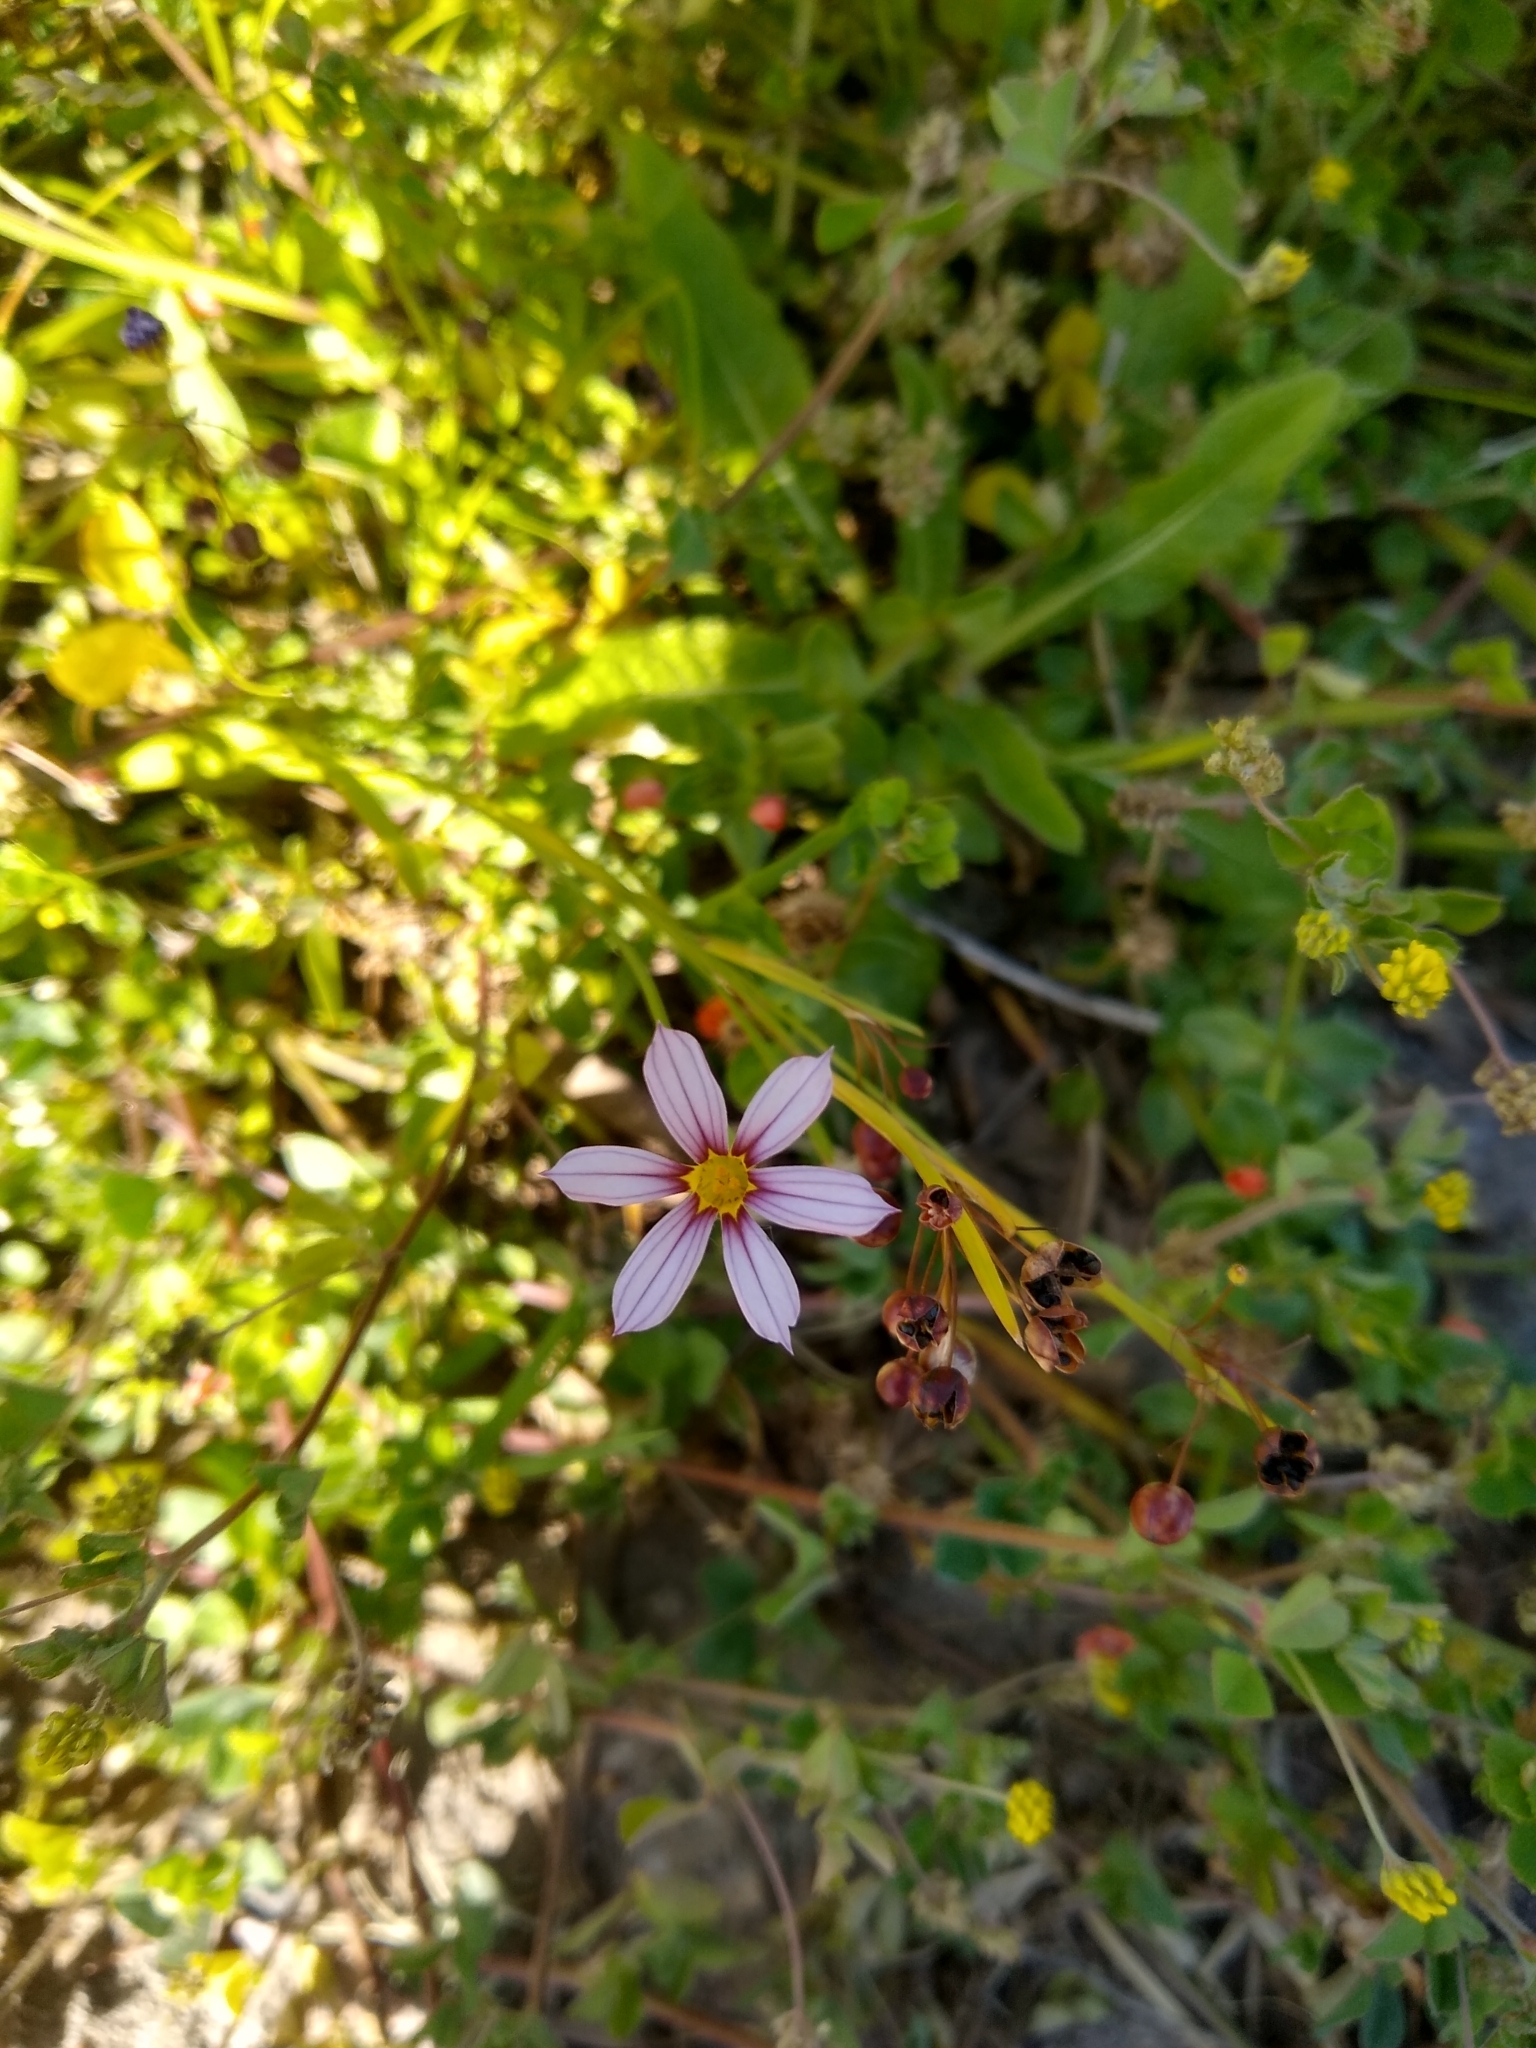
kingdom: Plantae
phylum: Tracheophyta
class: Liliopsida
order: Asparagales
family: Iridaceae
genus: Sisyrinchium
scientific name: Sisyrinchium platense
